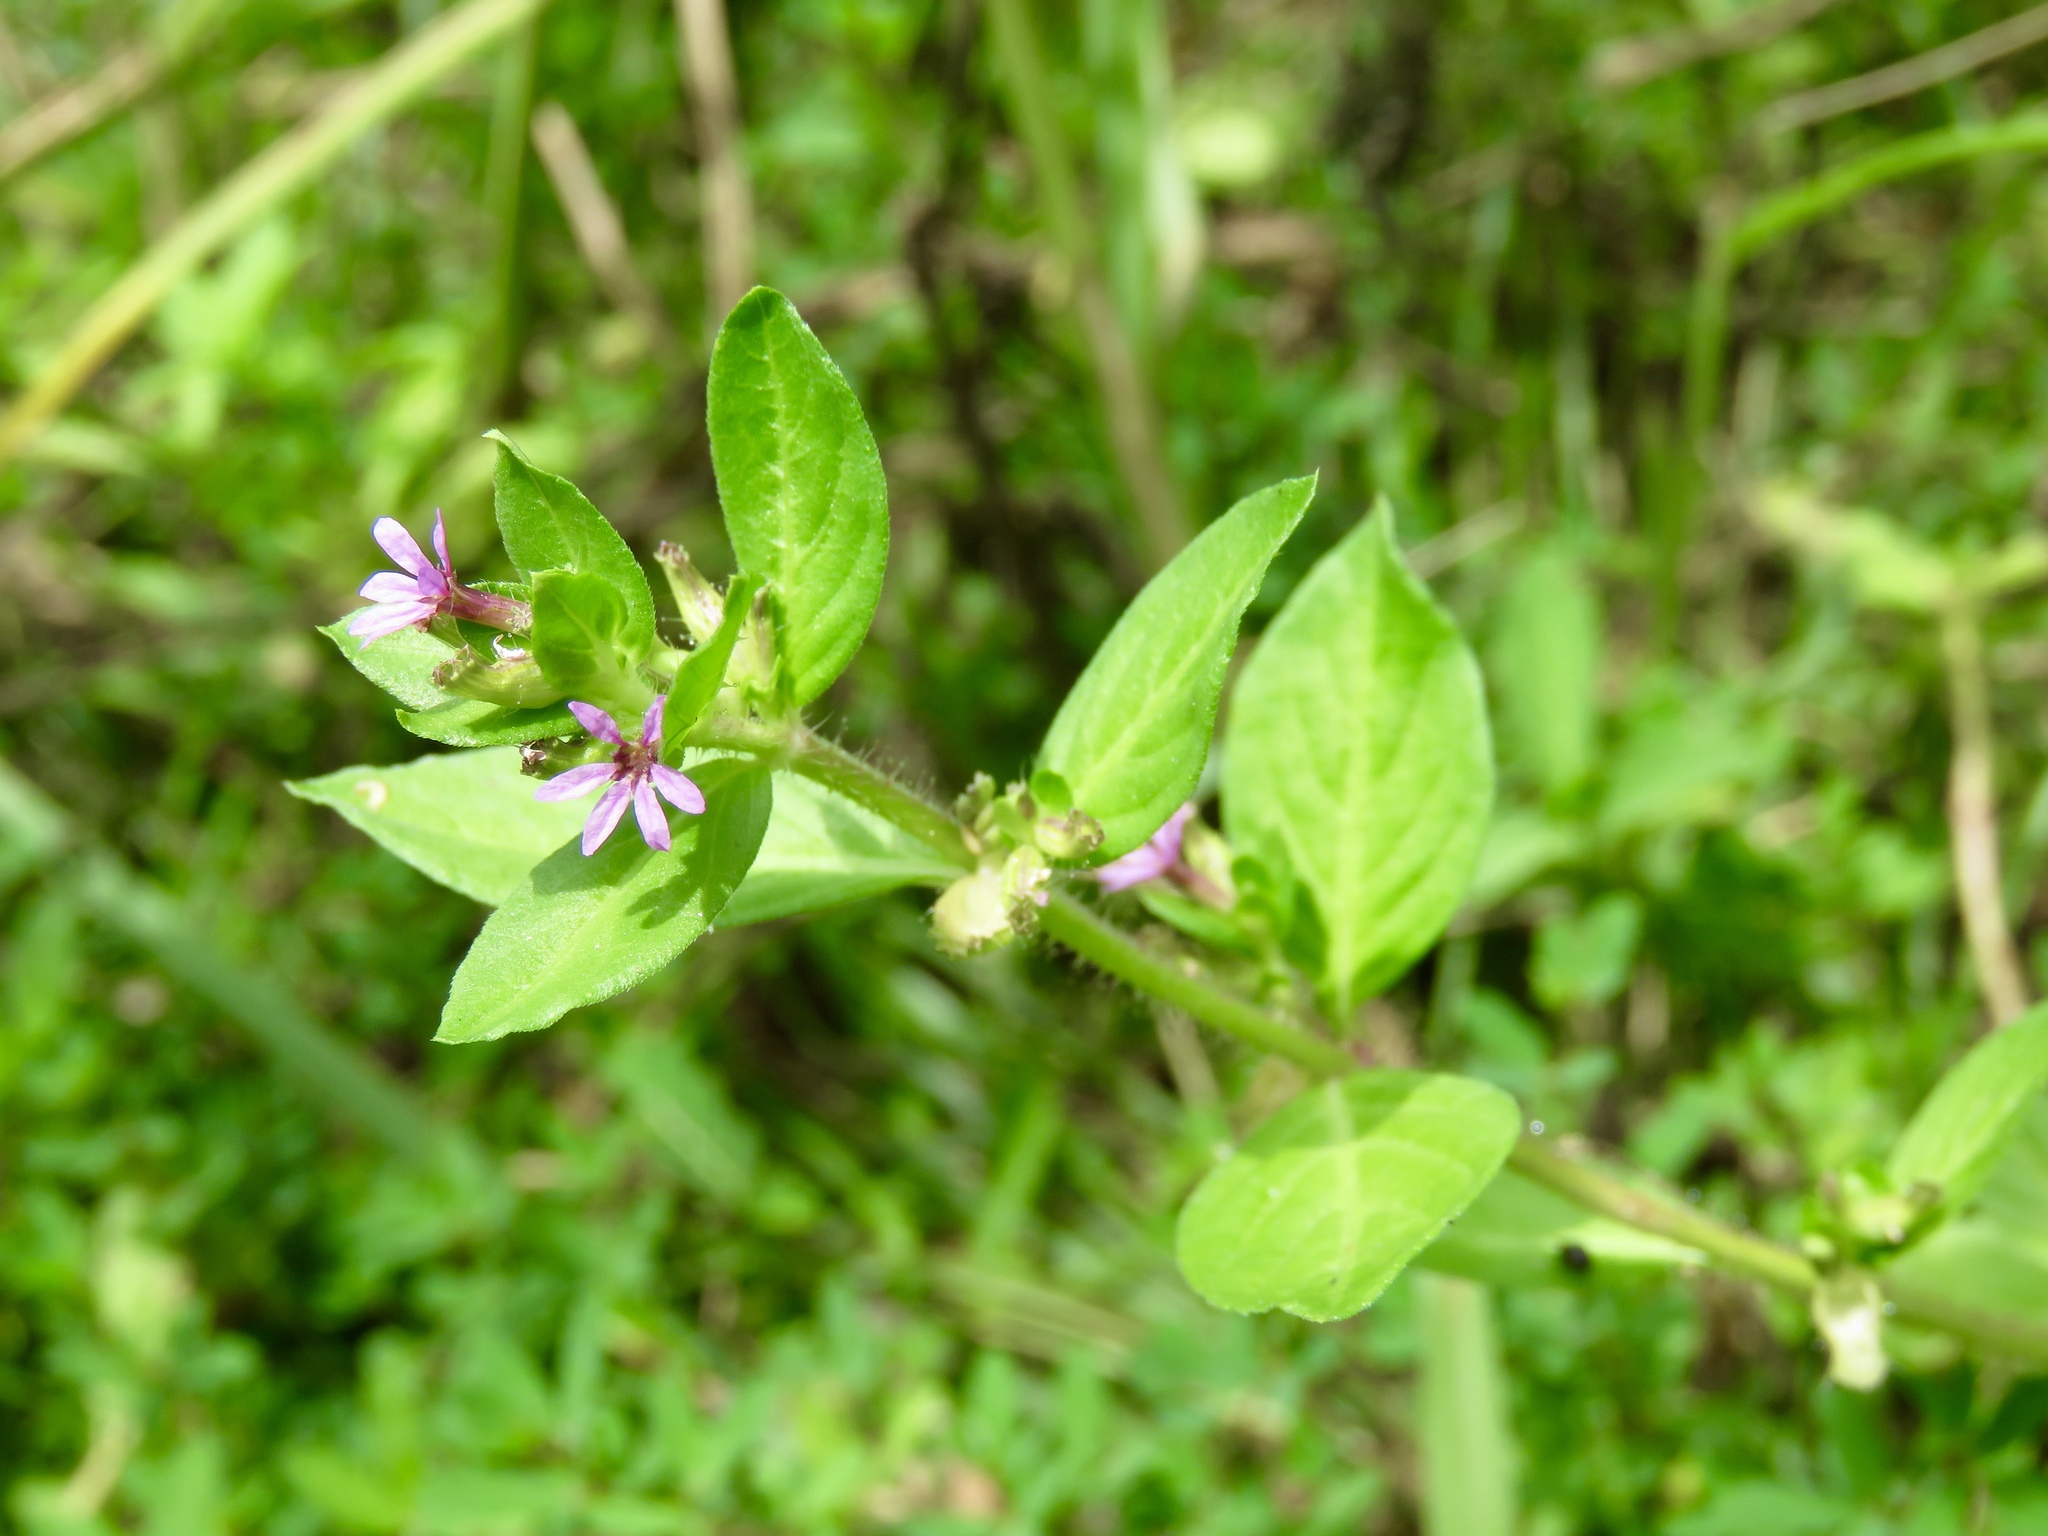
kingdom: Plantae
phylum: Tracheophyta
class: Magnoliopsida
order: Myrtales
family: Lythraceae
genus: Cuphea
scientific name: Cuphea carthagenensis
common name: Colombian waxweed
